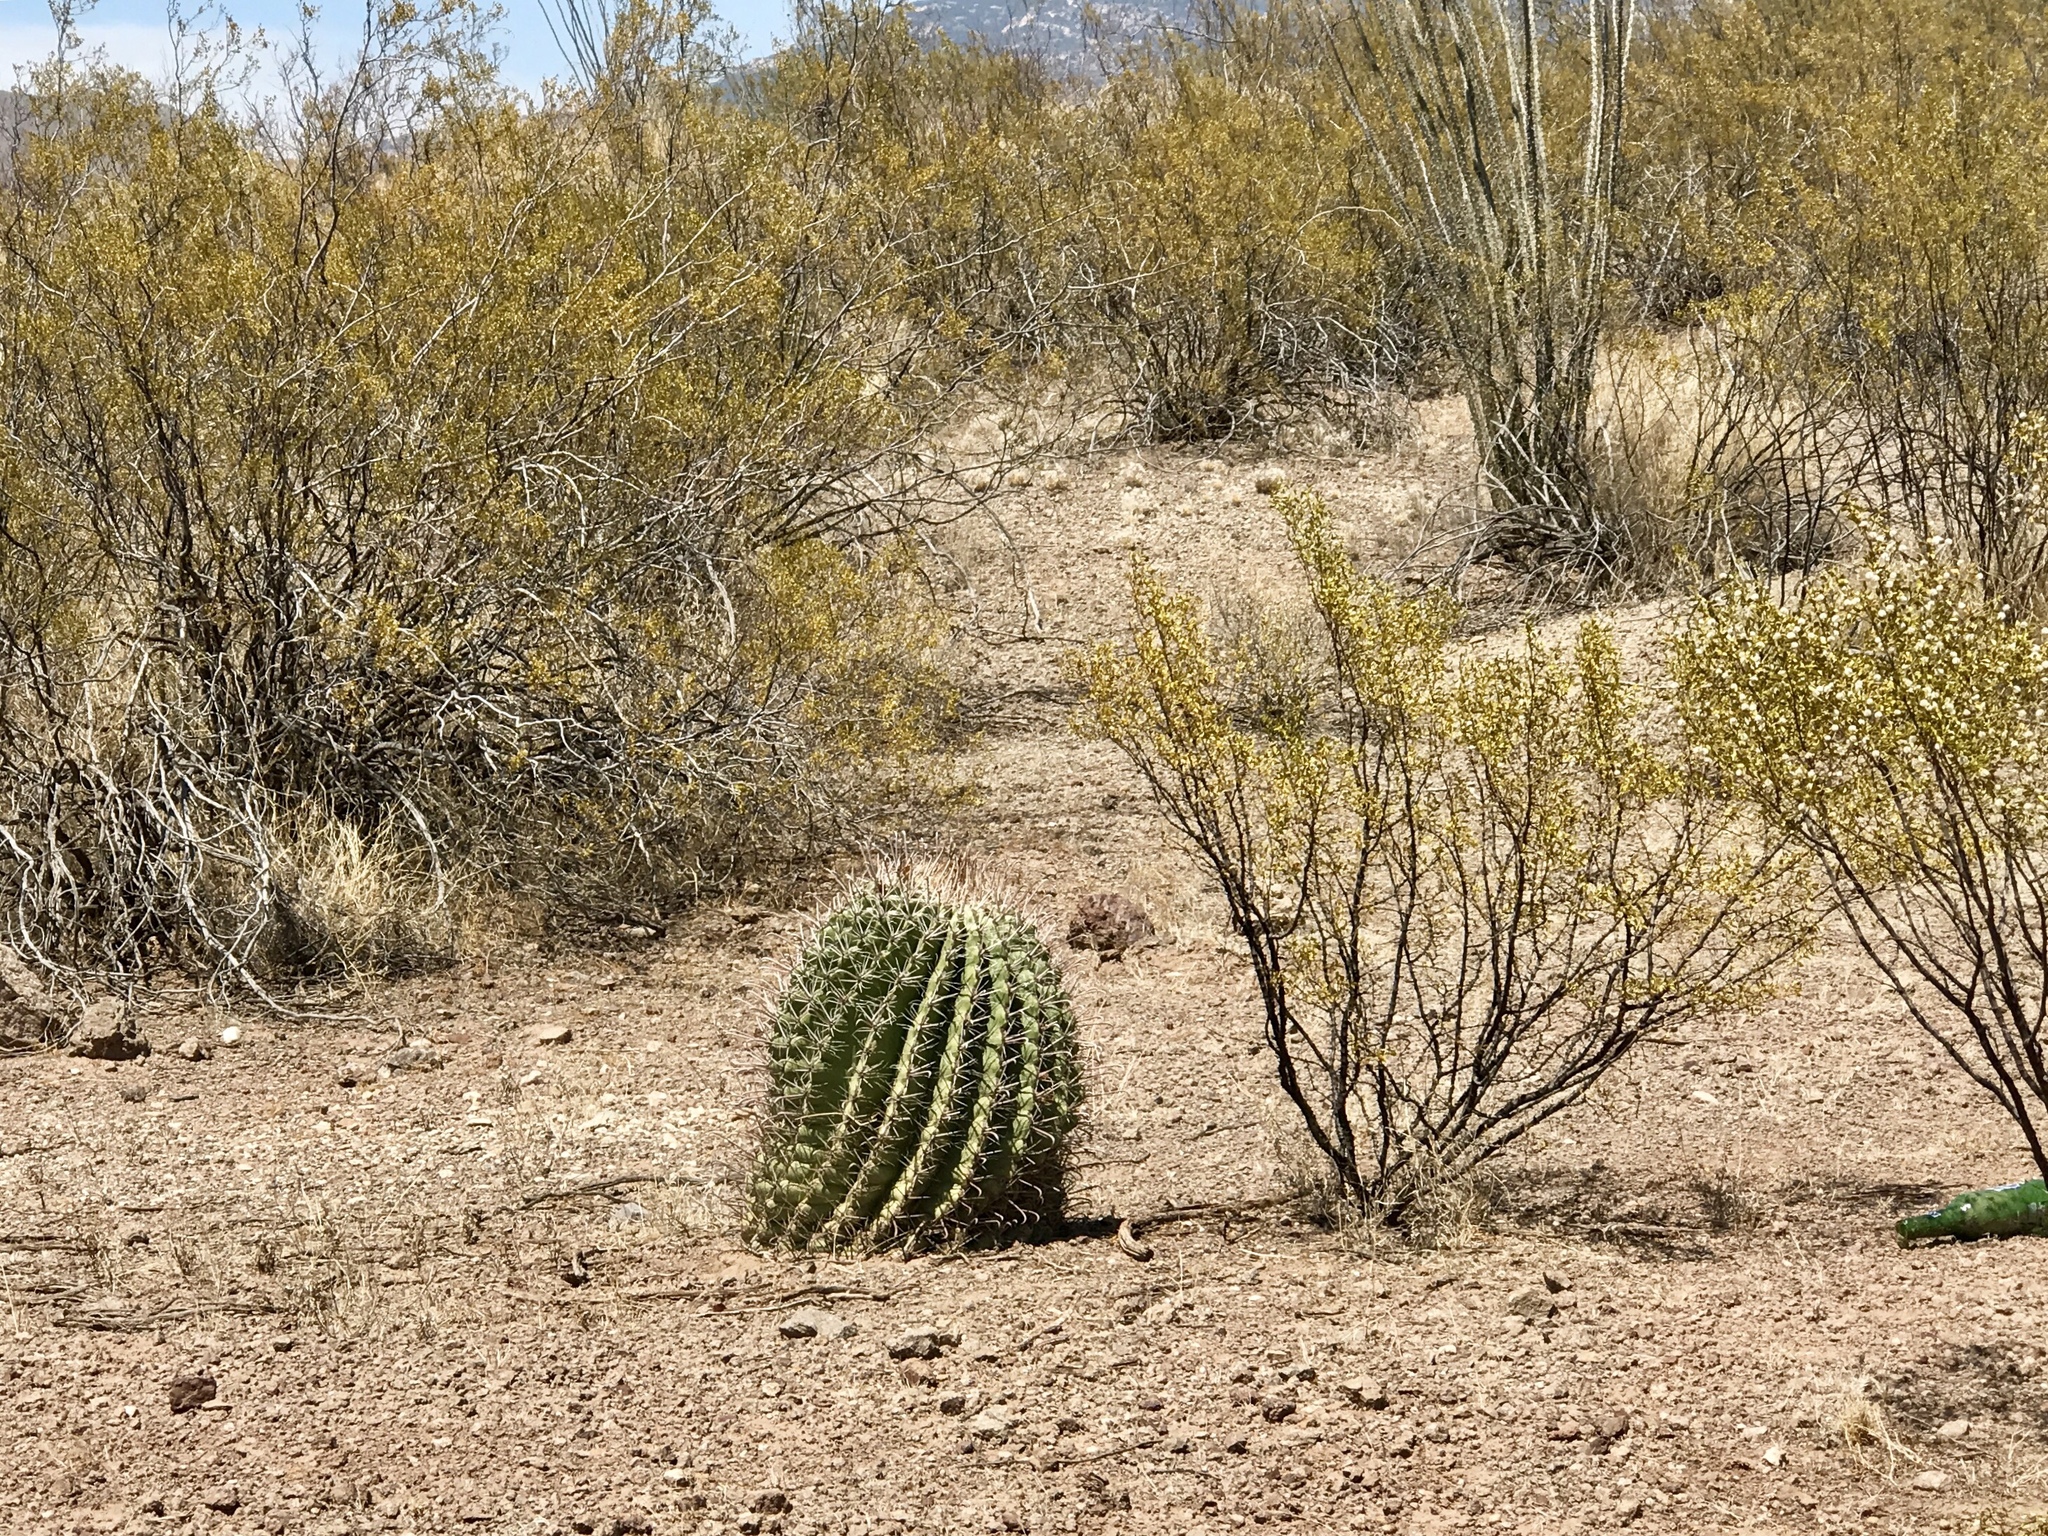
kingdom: Plantae
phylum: Tracheophyta
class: Magnoliopsida
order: Caryophyllales
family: Cactaceae
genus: Ferocactus
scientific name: Ferocactus wislizeni
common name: Candy barrel cactus
